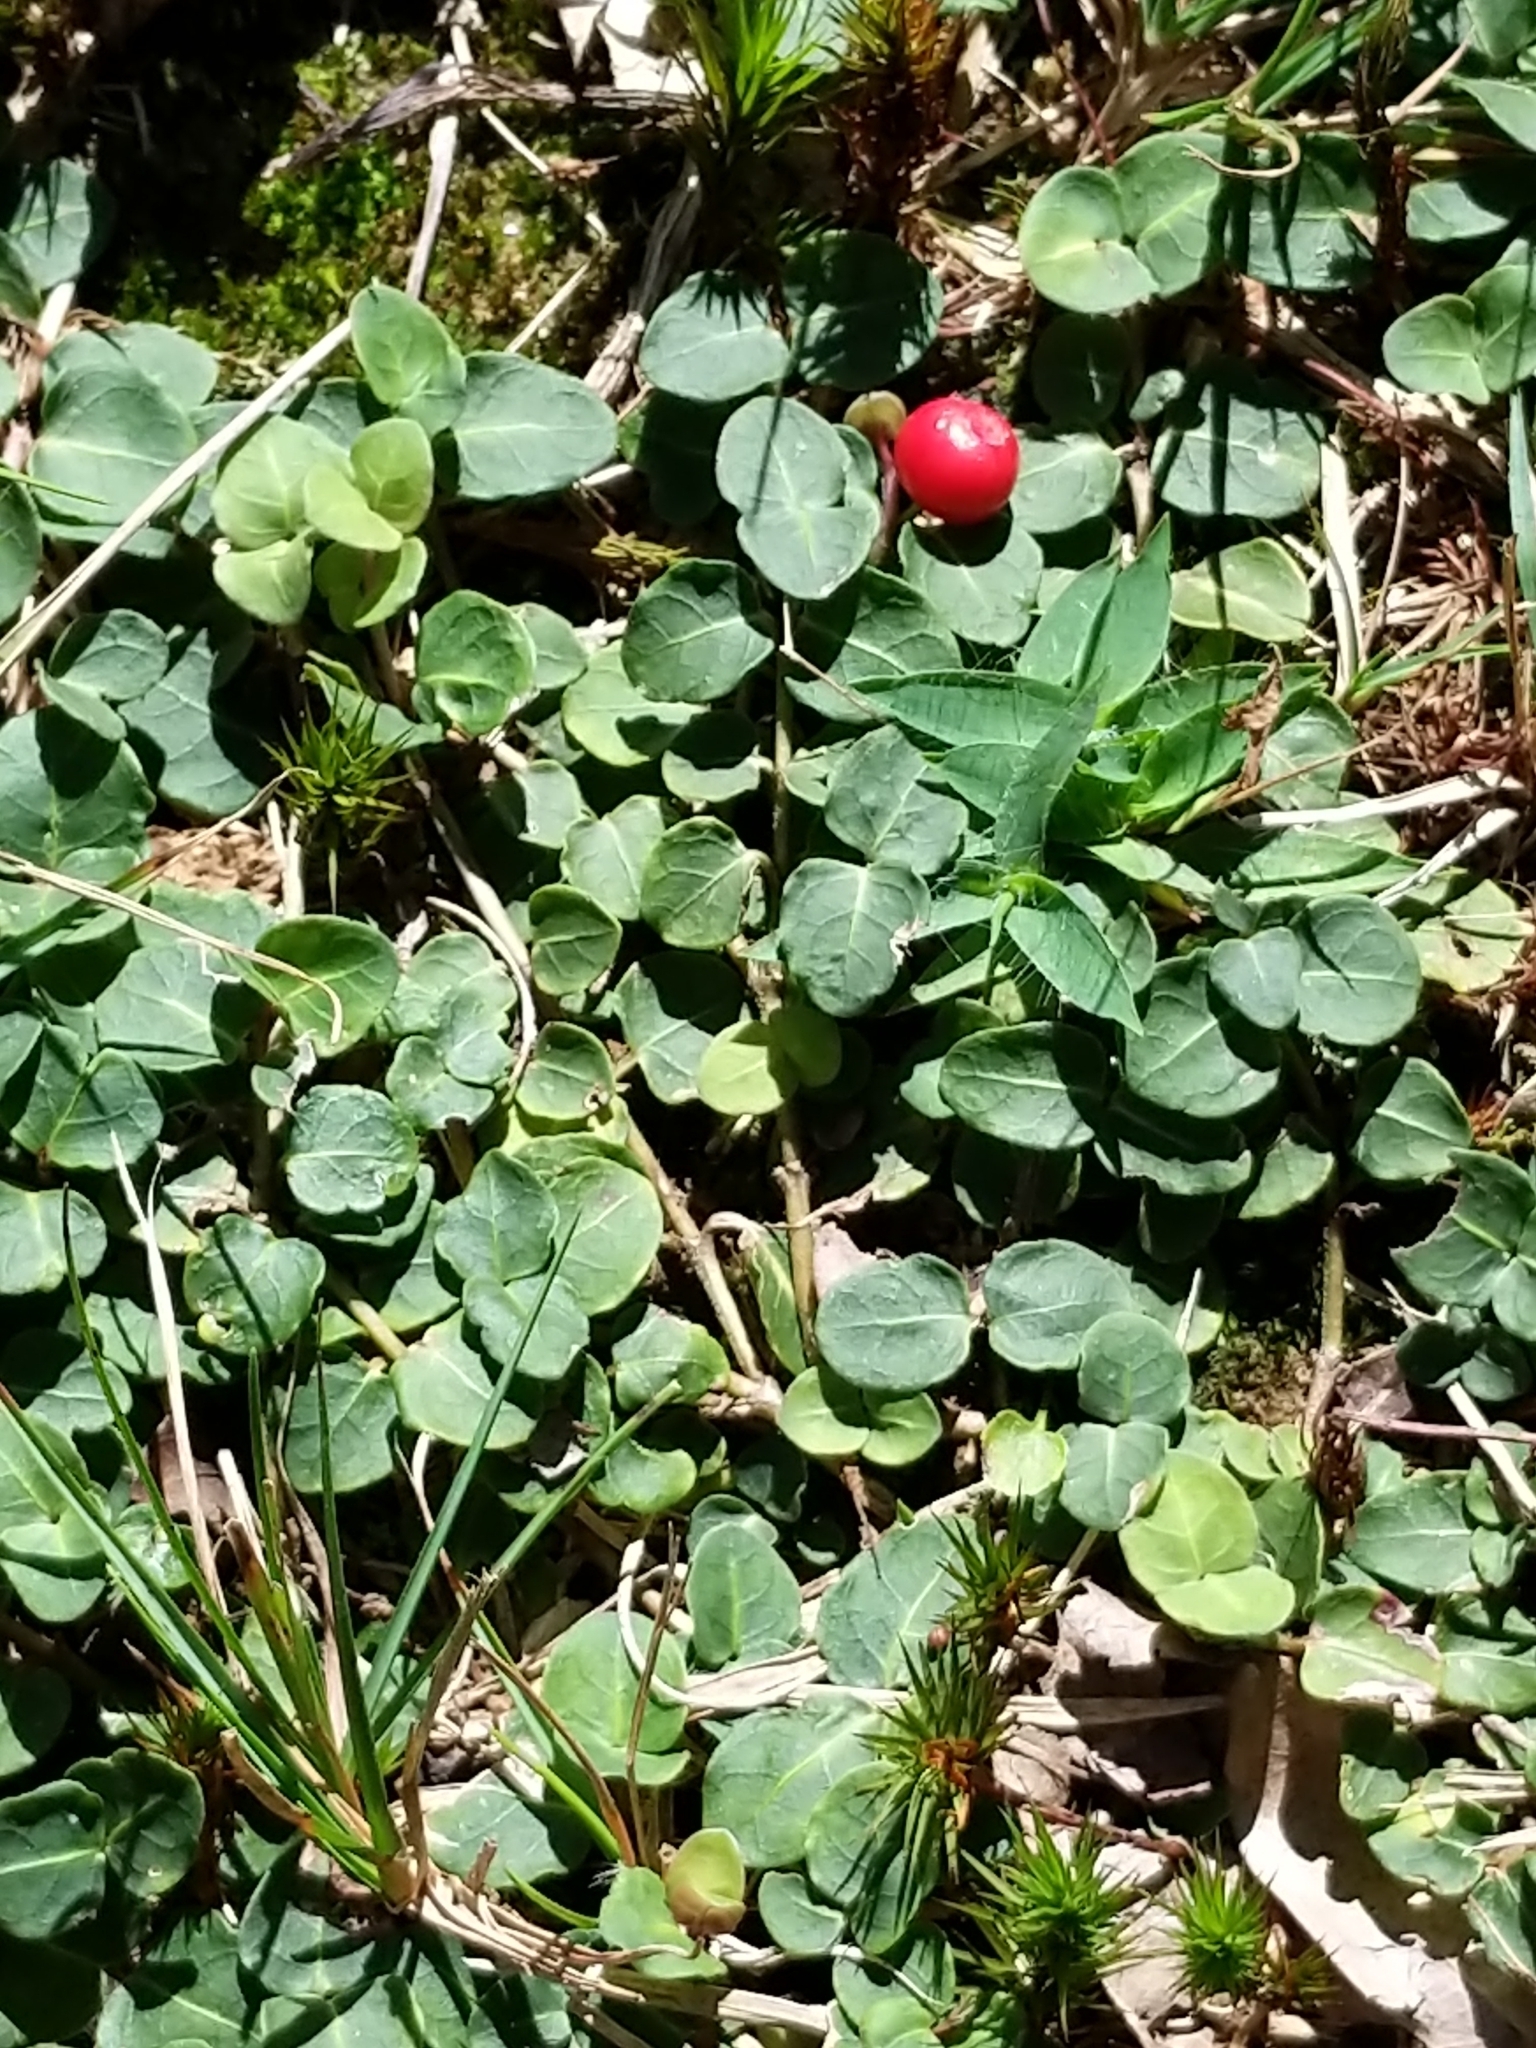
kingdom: Plantae
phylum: Tracheophyta
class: Magnoliopsida
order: Gentianales
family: Rubiaceae
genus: Mitchella
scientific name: Mitchella repens
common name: Partridge-berry
